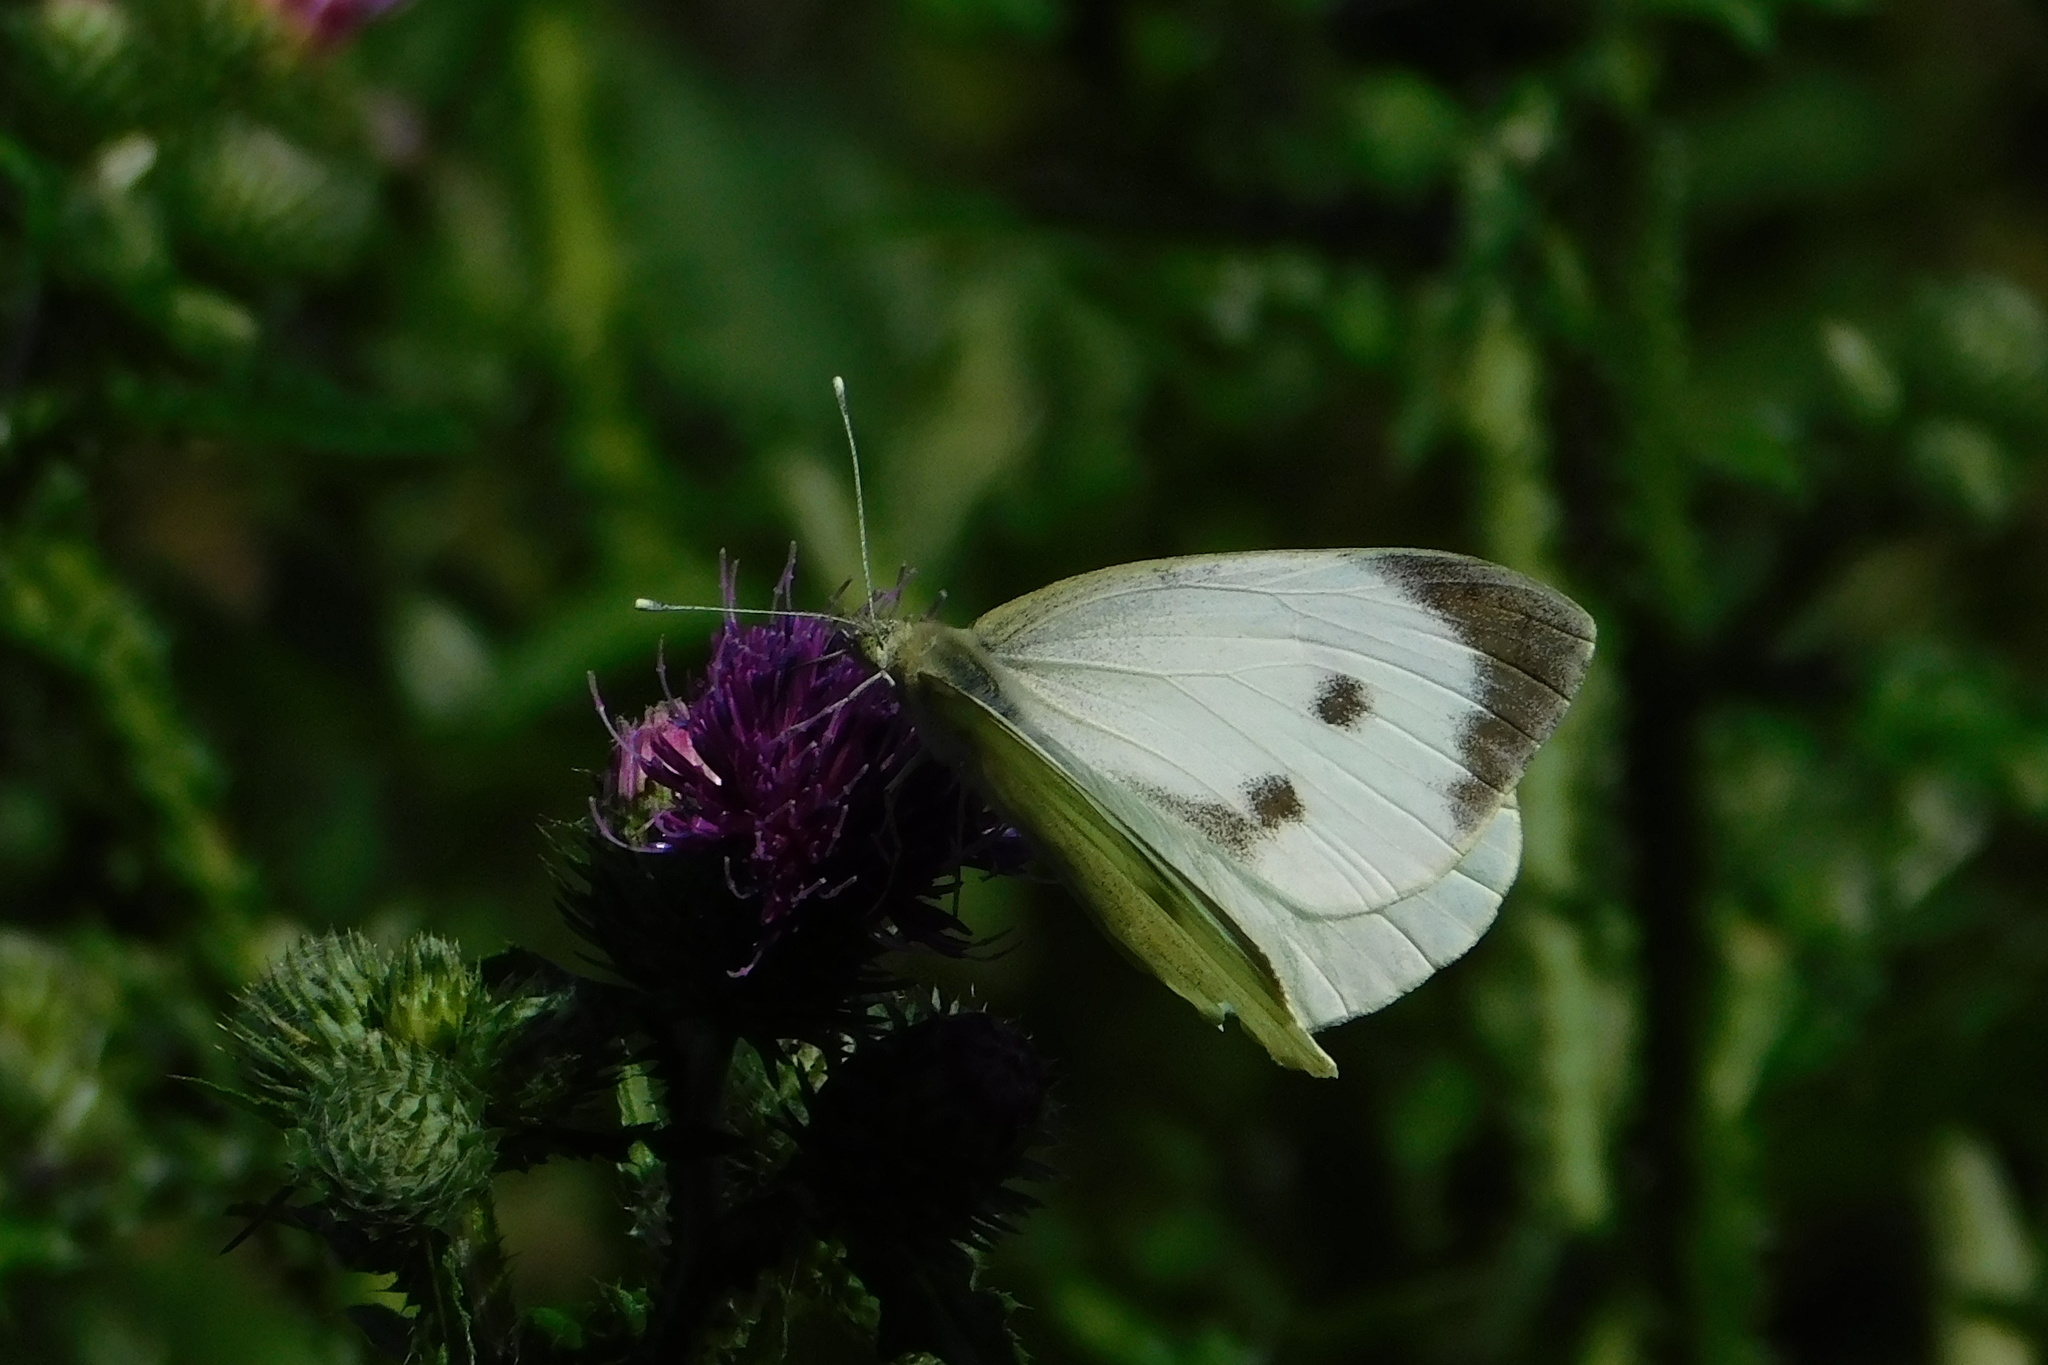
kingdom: Animalia
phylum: Arthropoda
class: Insecta
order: Lepidoptera
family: Pieridae
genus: Pieris
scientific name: Pieris brassicae
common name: Large white
